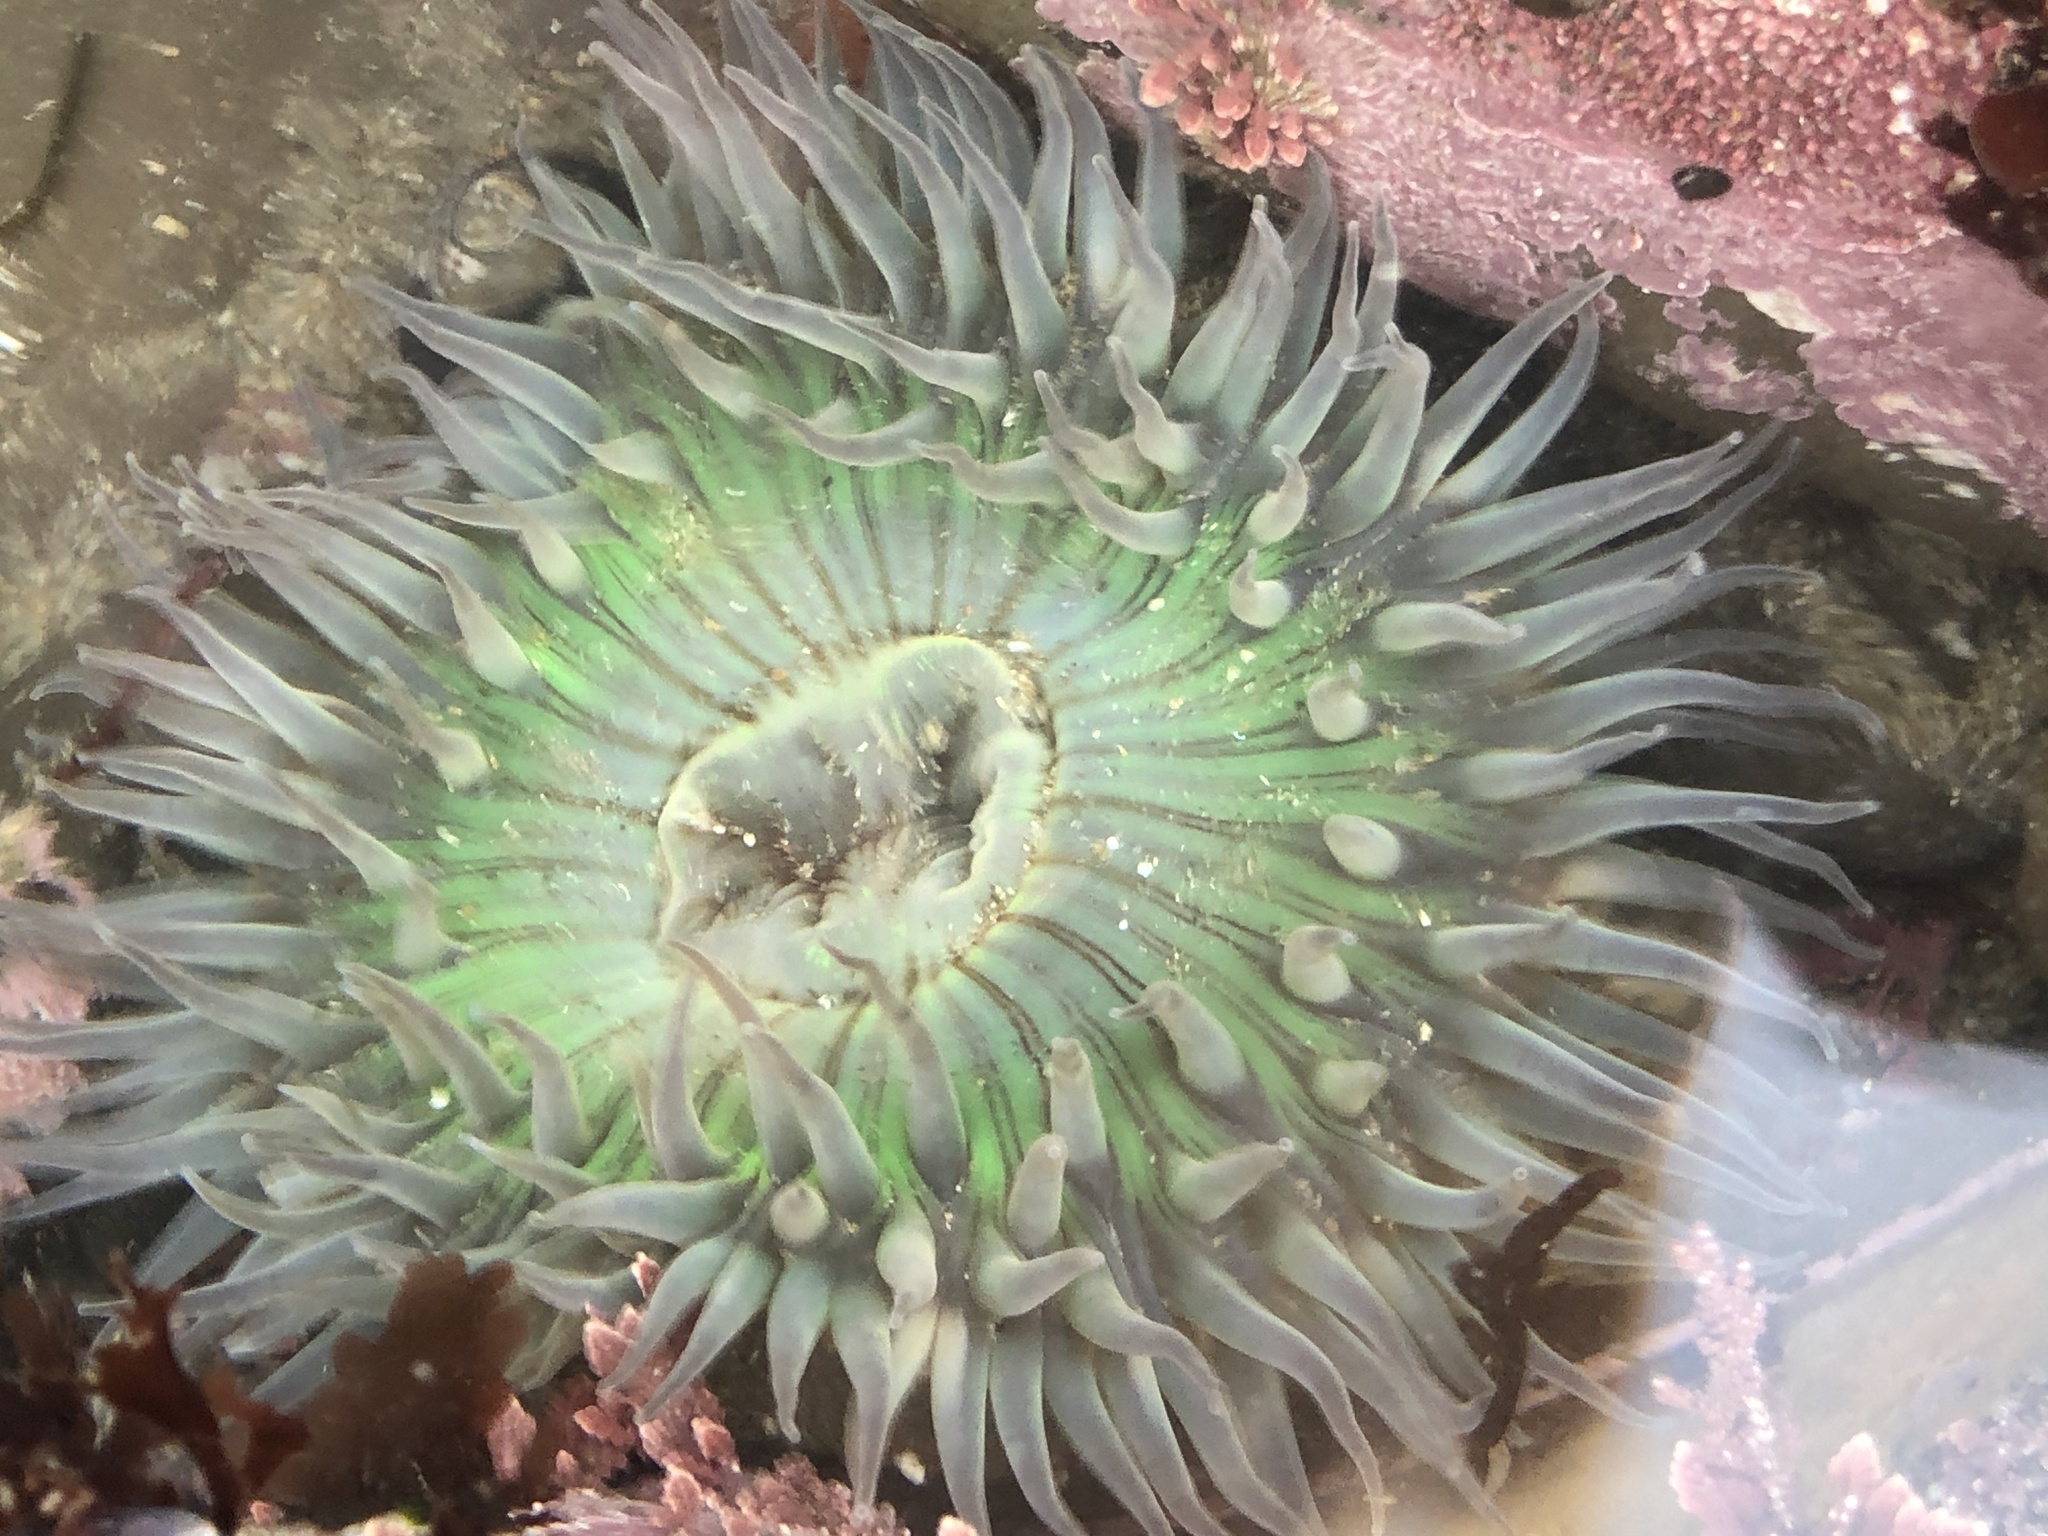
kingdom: Animalia
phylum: Cnidaria
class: Anthozoa
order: Actiniaria
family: Actiniidae
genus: Anthopleura
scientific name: Anthopleura sola
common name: Sun anemone
